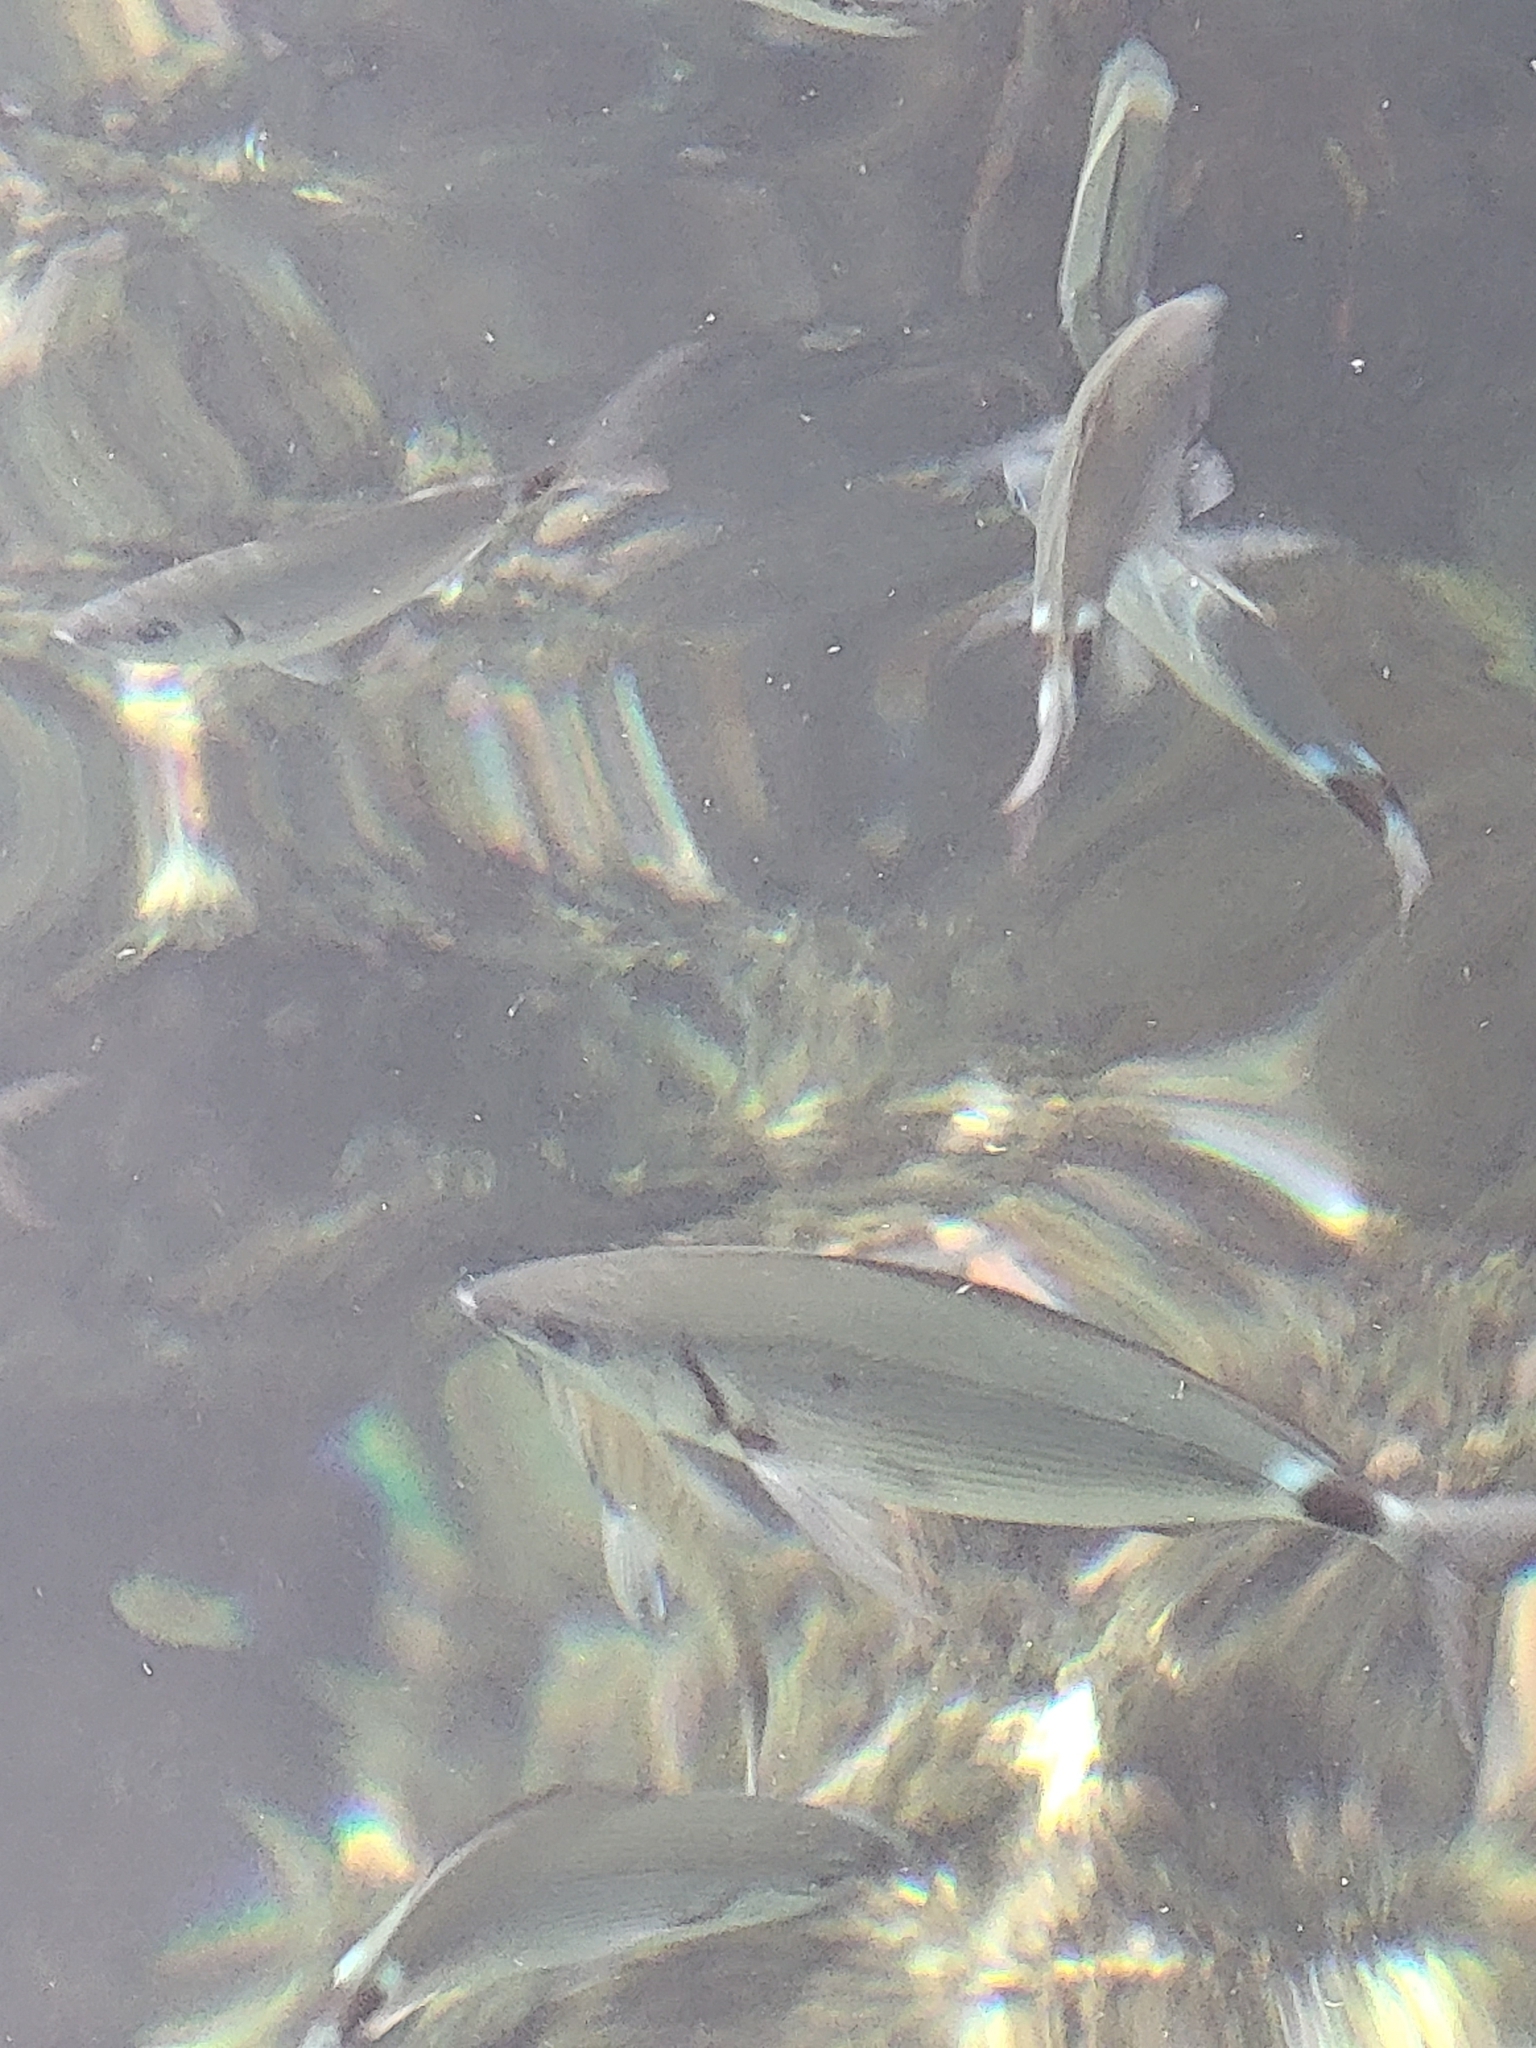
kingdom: Animalia
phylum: Chordata
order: Perciformes
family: Sparidae
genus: Oblada
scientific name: Oblada melanura
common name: Saddled seabream
